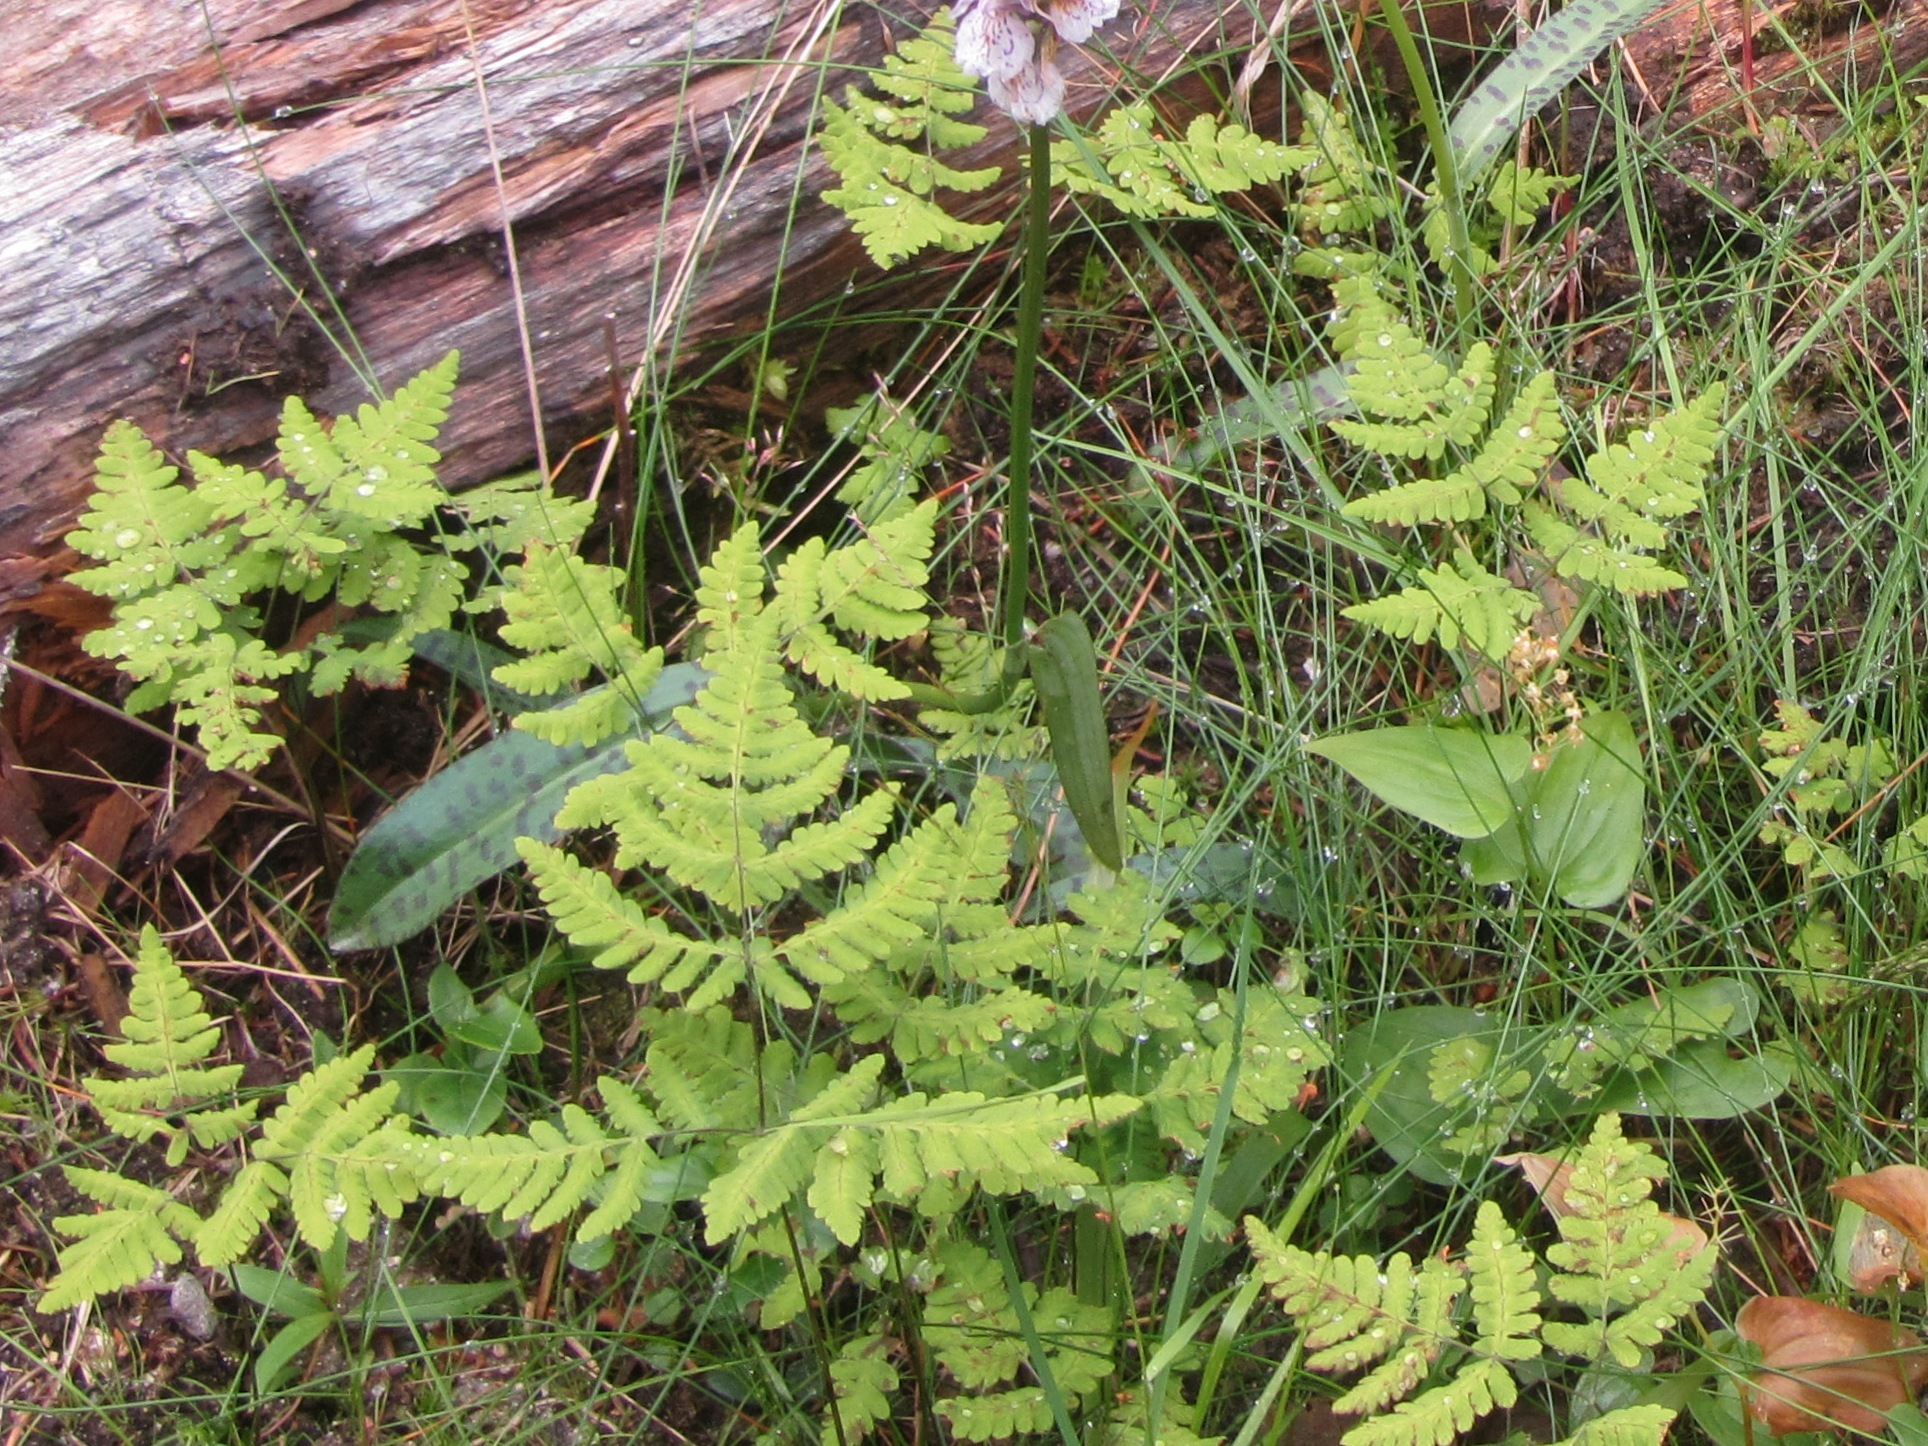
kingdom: Plantae
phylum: Tracheophyta
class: Polypodiopsida
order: Polypodiales
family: Cystopteridaceae
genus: Gymnocarpium
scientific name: Gymnocarpium dryopteris
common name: Oak fern
